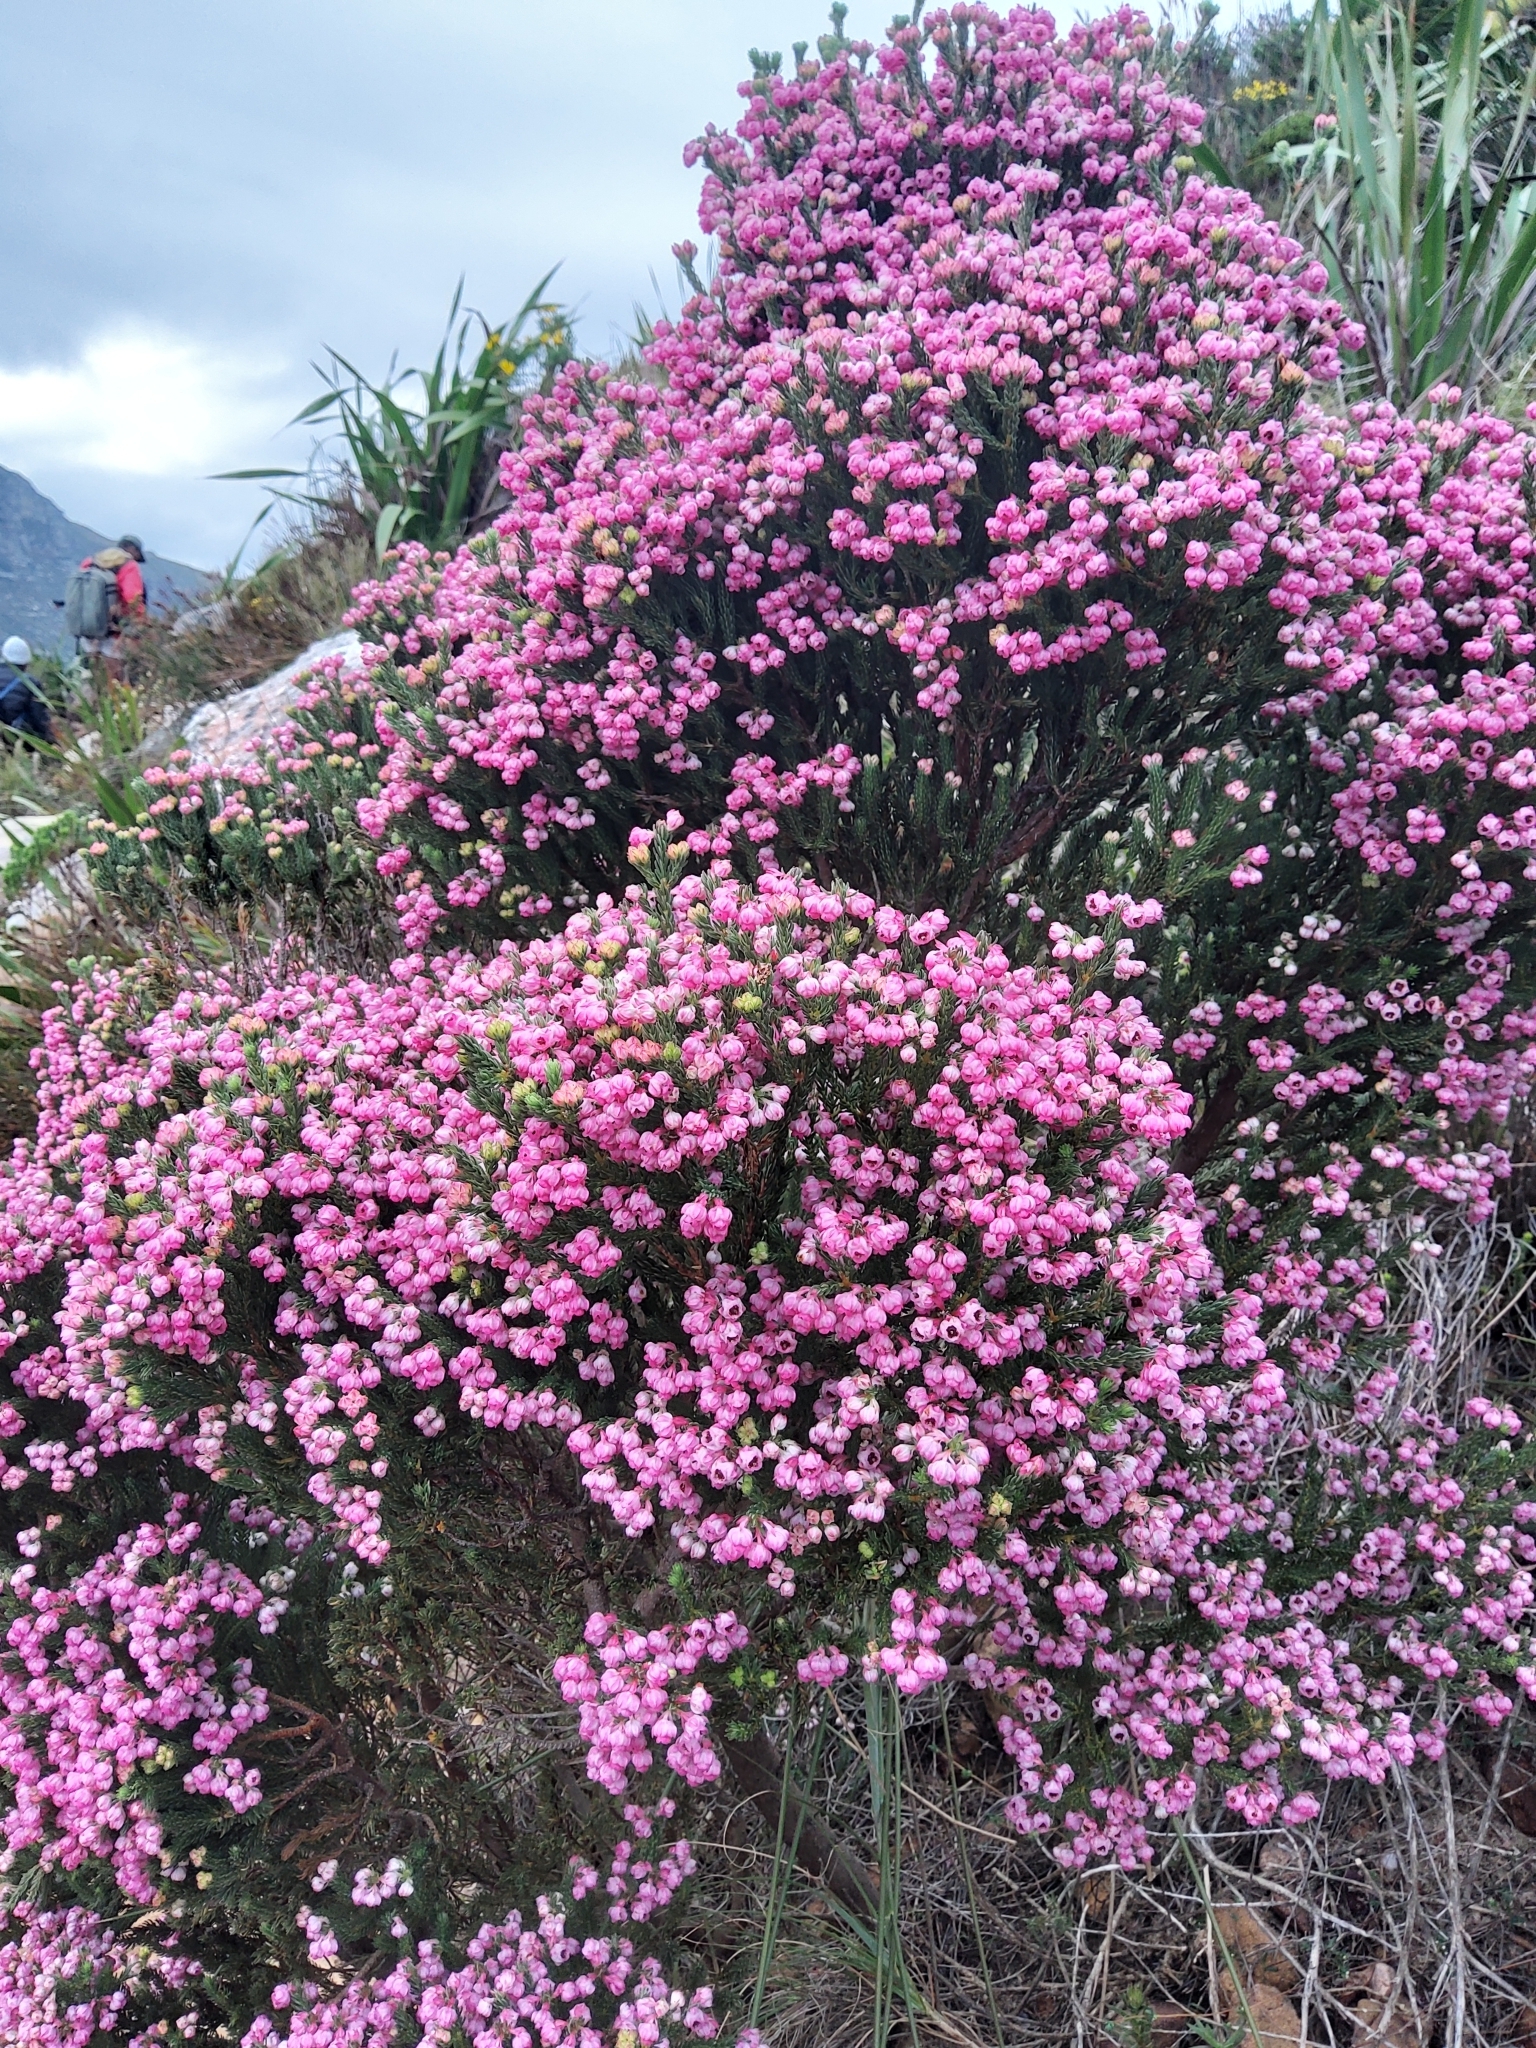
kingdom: Plantae
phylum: Tracheophyta
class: Magnoliopsida
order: Ericales
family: Ericaceae
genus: Erica
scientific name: Erica baccans
